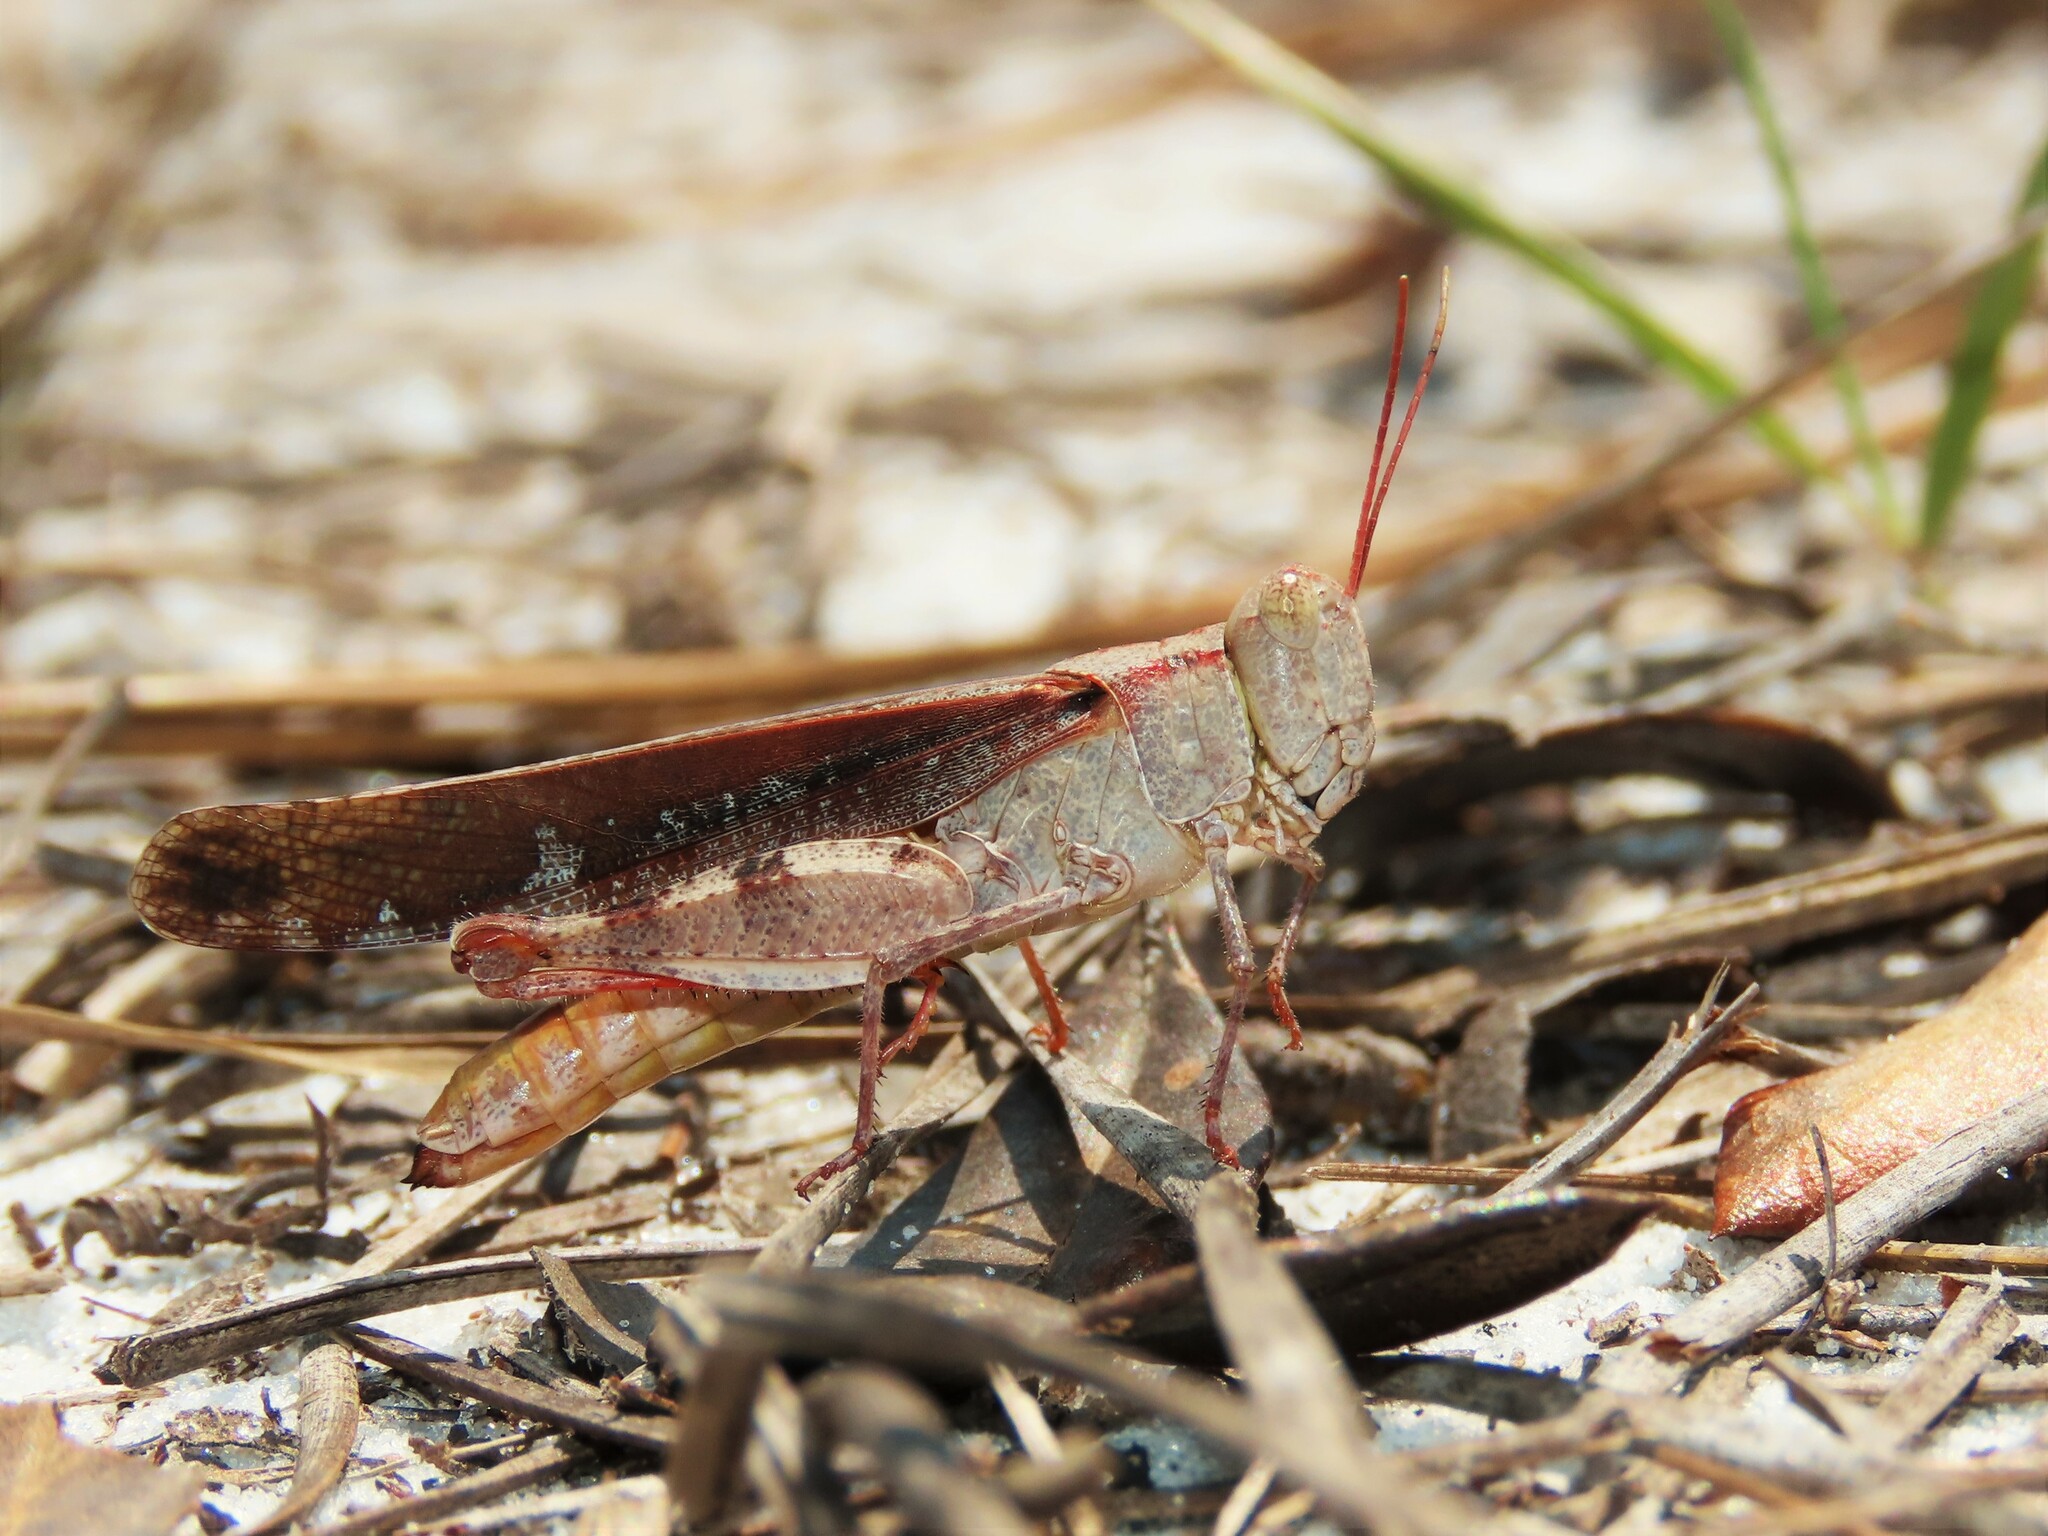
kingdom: Animalia
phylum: Arthropoda
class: Insecta
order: Orthoptera
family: Acrididae
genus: Spharagemon
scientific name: Spharagemon marmoratum
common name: Marbled grasshopper
